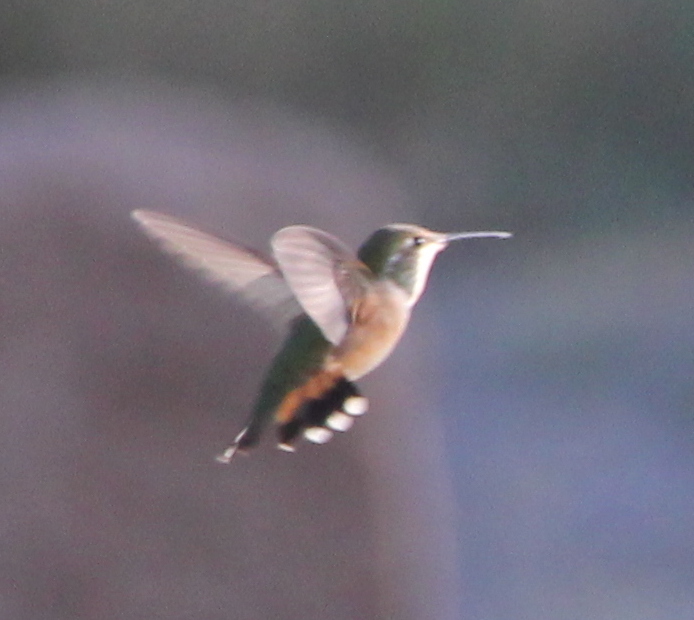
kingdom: Animalia
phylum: Chordata
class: Aves
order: Apodiformes
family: Trochilidae
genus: Selasphorus
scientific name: Selasphorus rufus
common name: Rufous hummingbird
